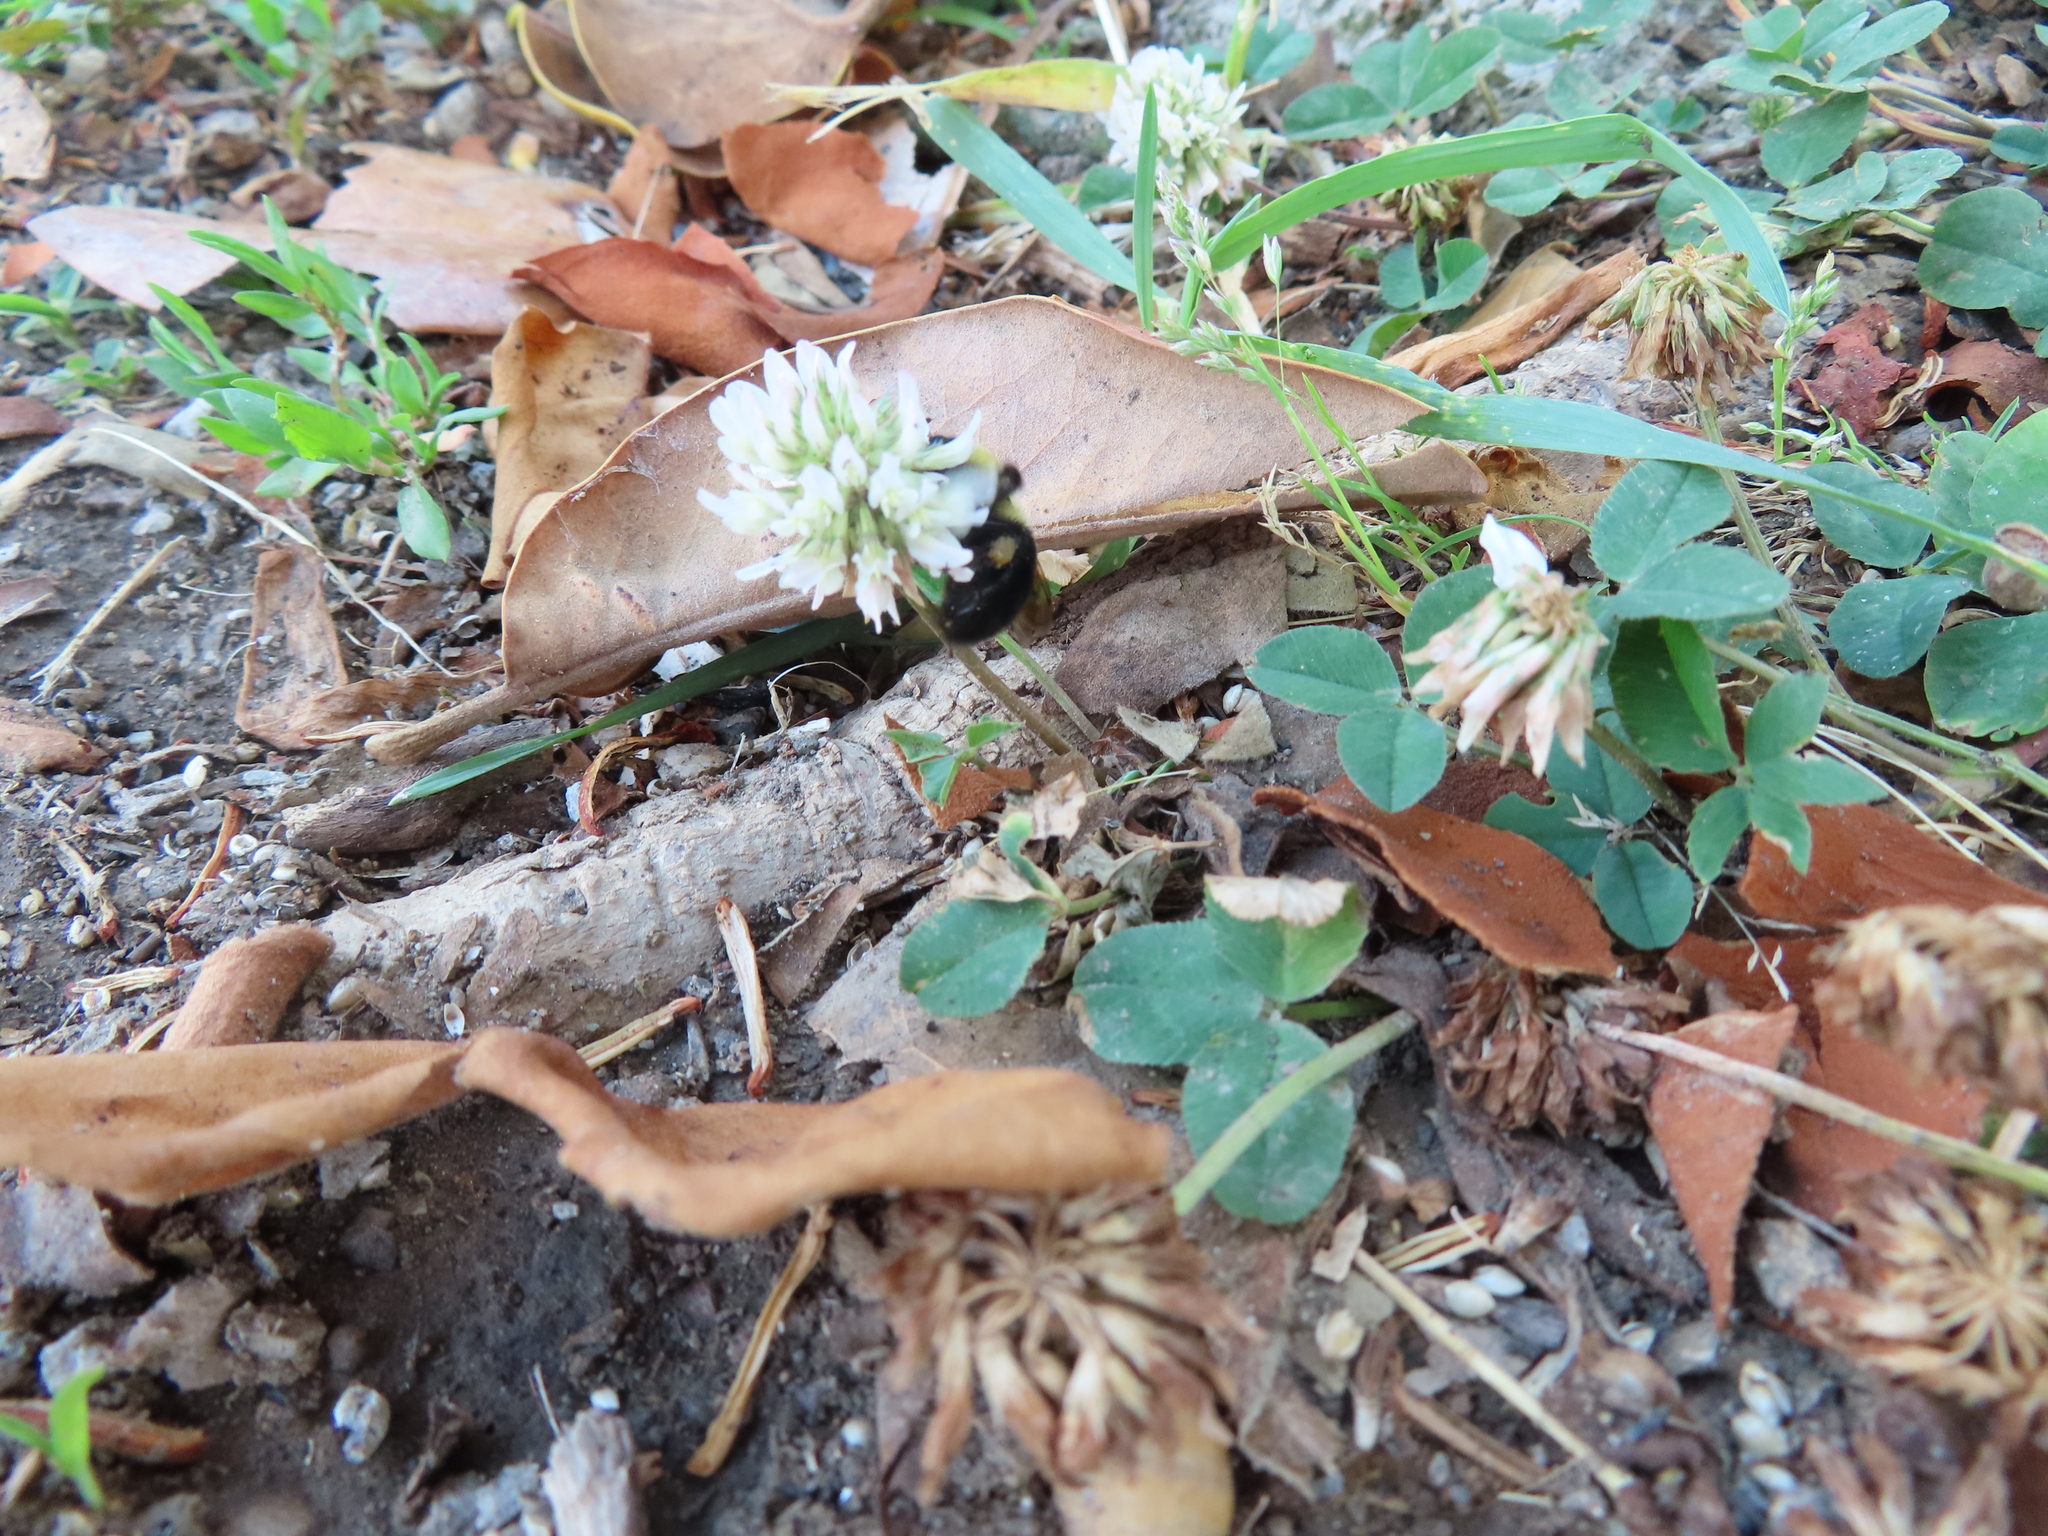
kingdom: Plantae
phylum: Tracheophyta
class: Magnoliopsida
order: Fabales
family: Fabaceae
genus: Trifolium
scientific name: Trifolium repens
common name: White clover
